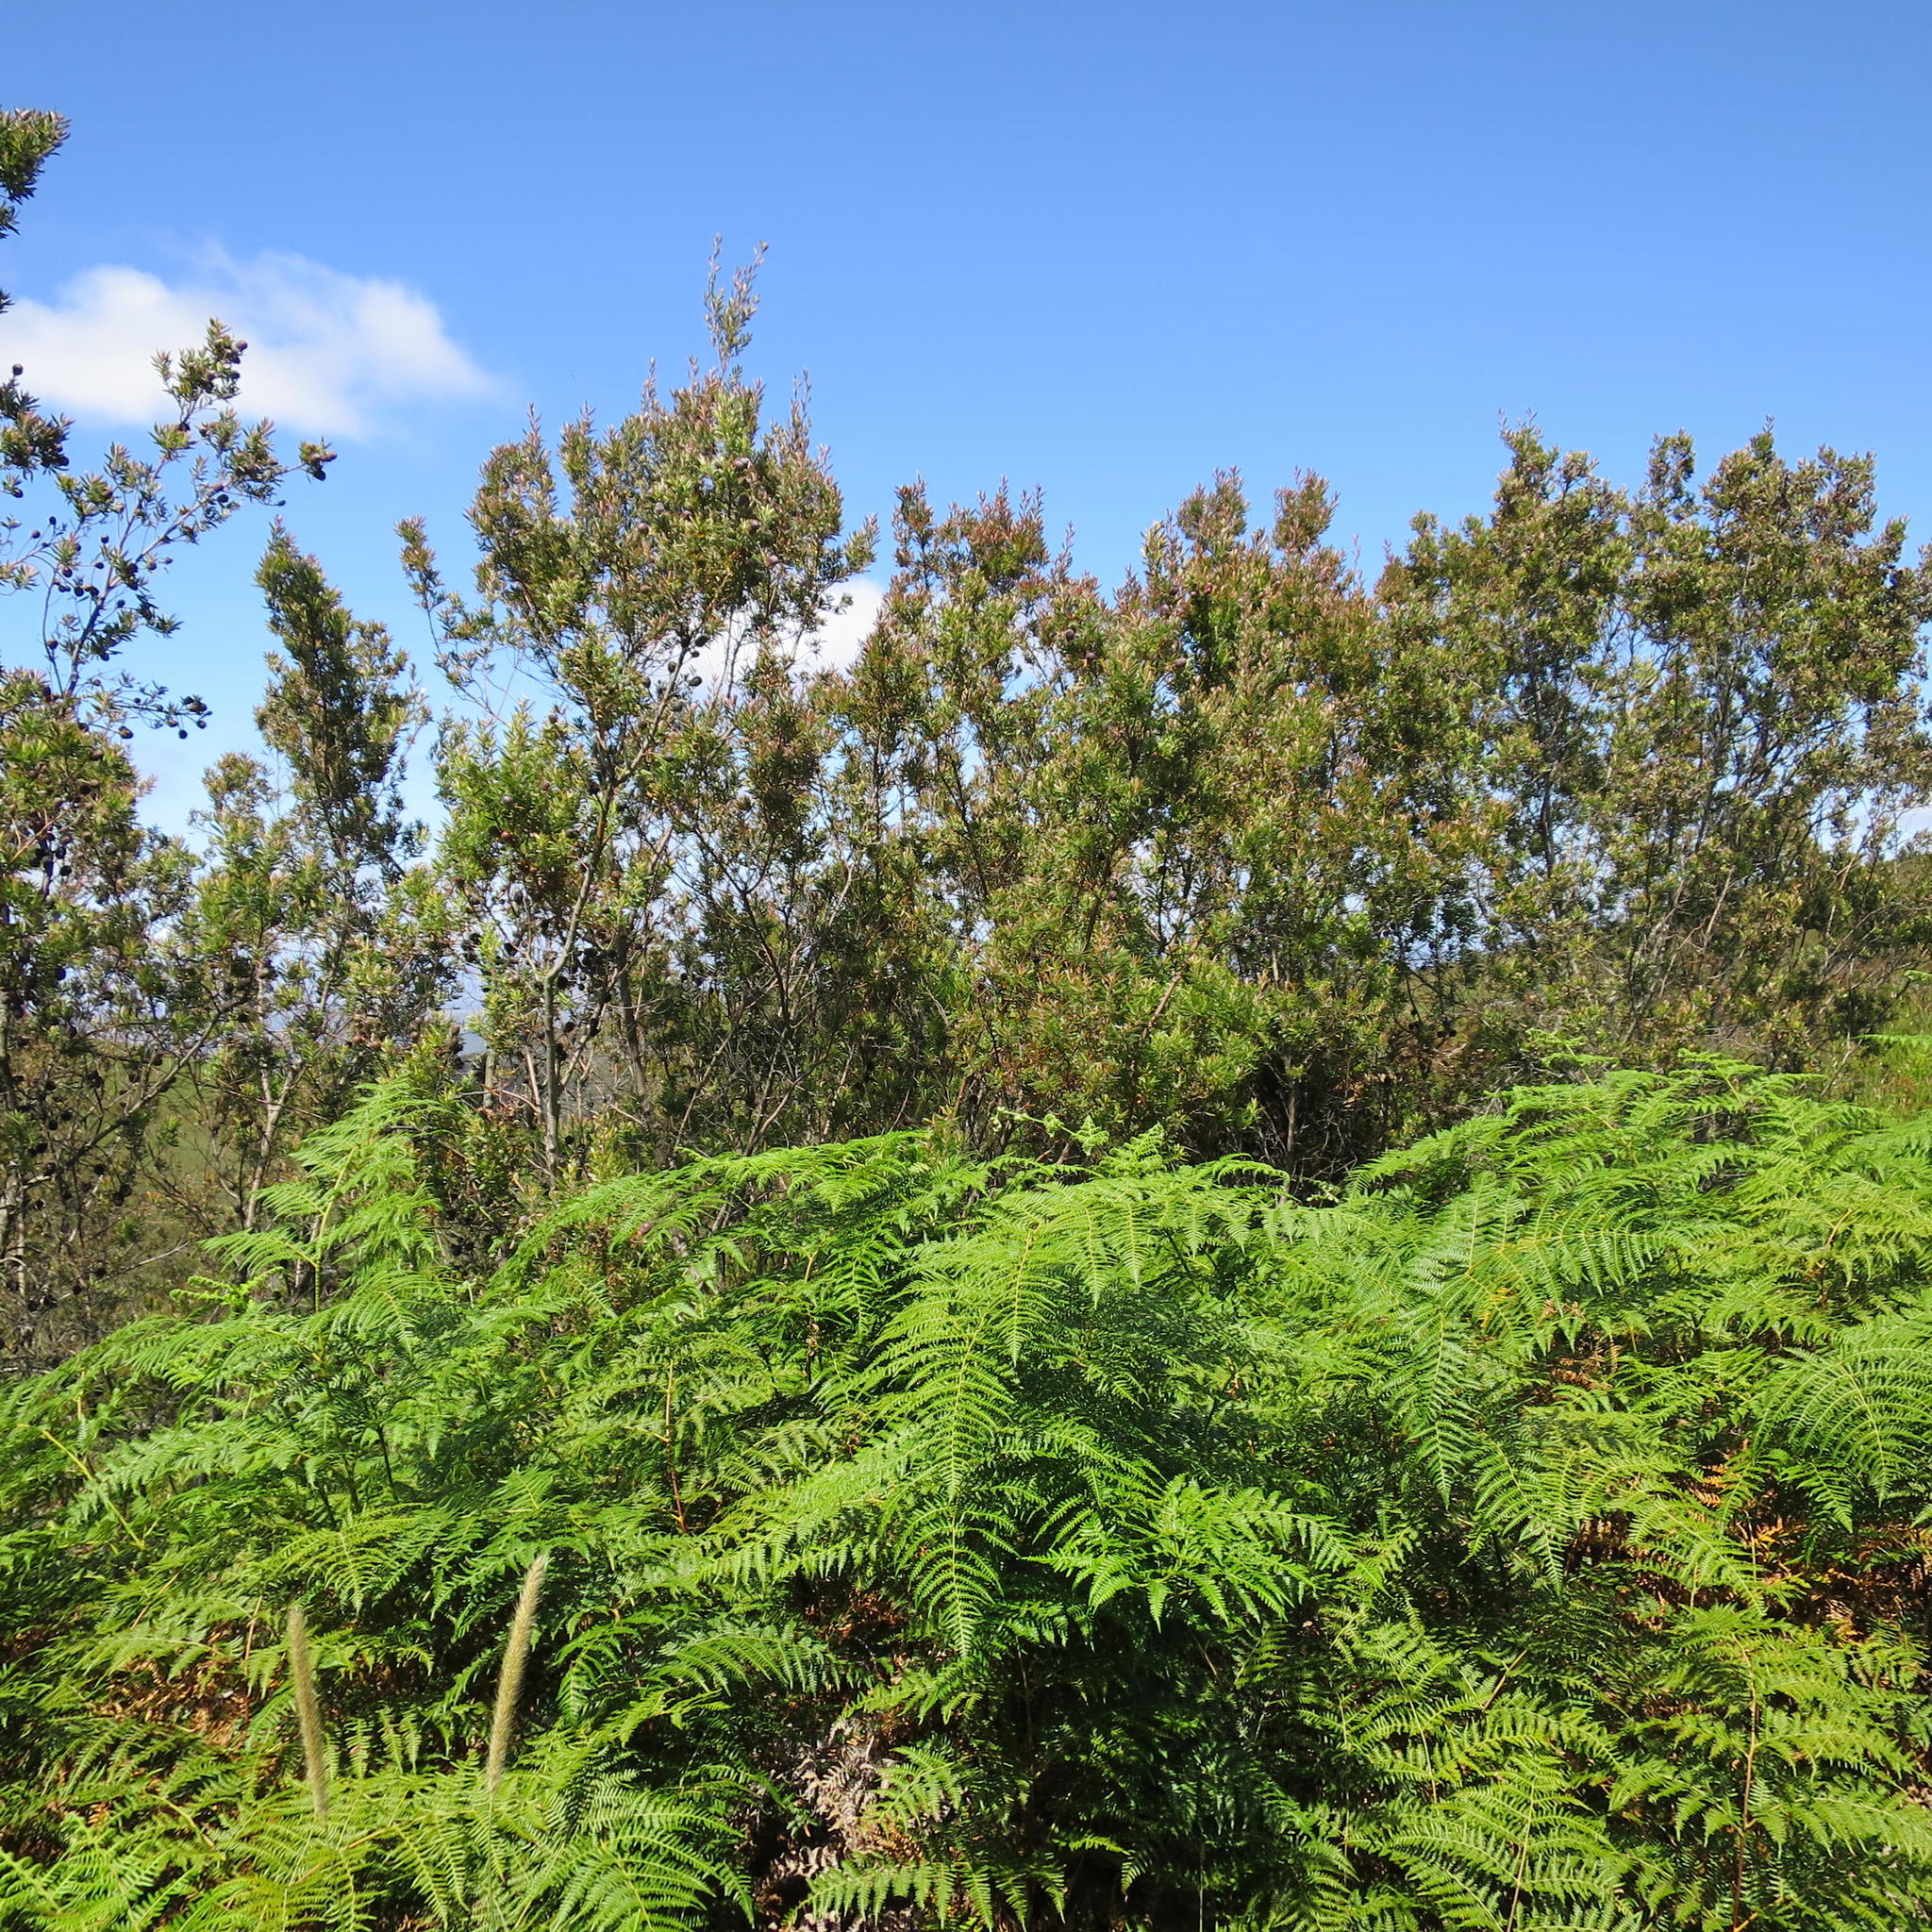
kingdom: Plantae
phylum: Tracheophyta
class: Polypodiopsida
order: Polypodiales
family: Dennstaedtiaceae
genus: Pteridium
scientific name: Pteridium aquilinum
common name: Bracken
